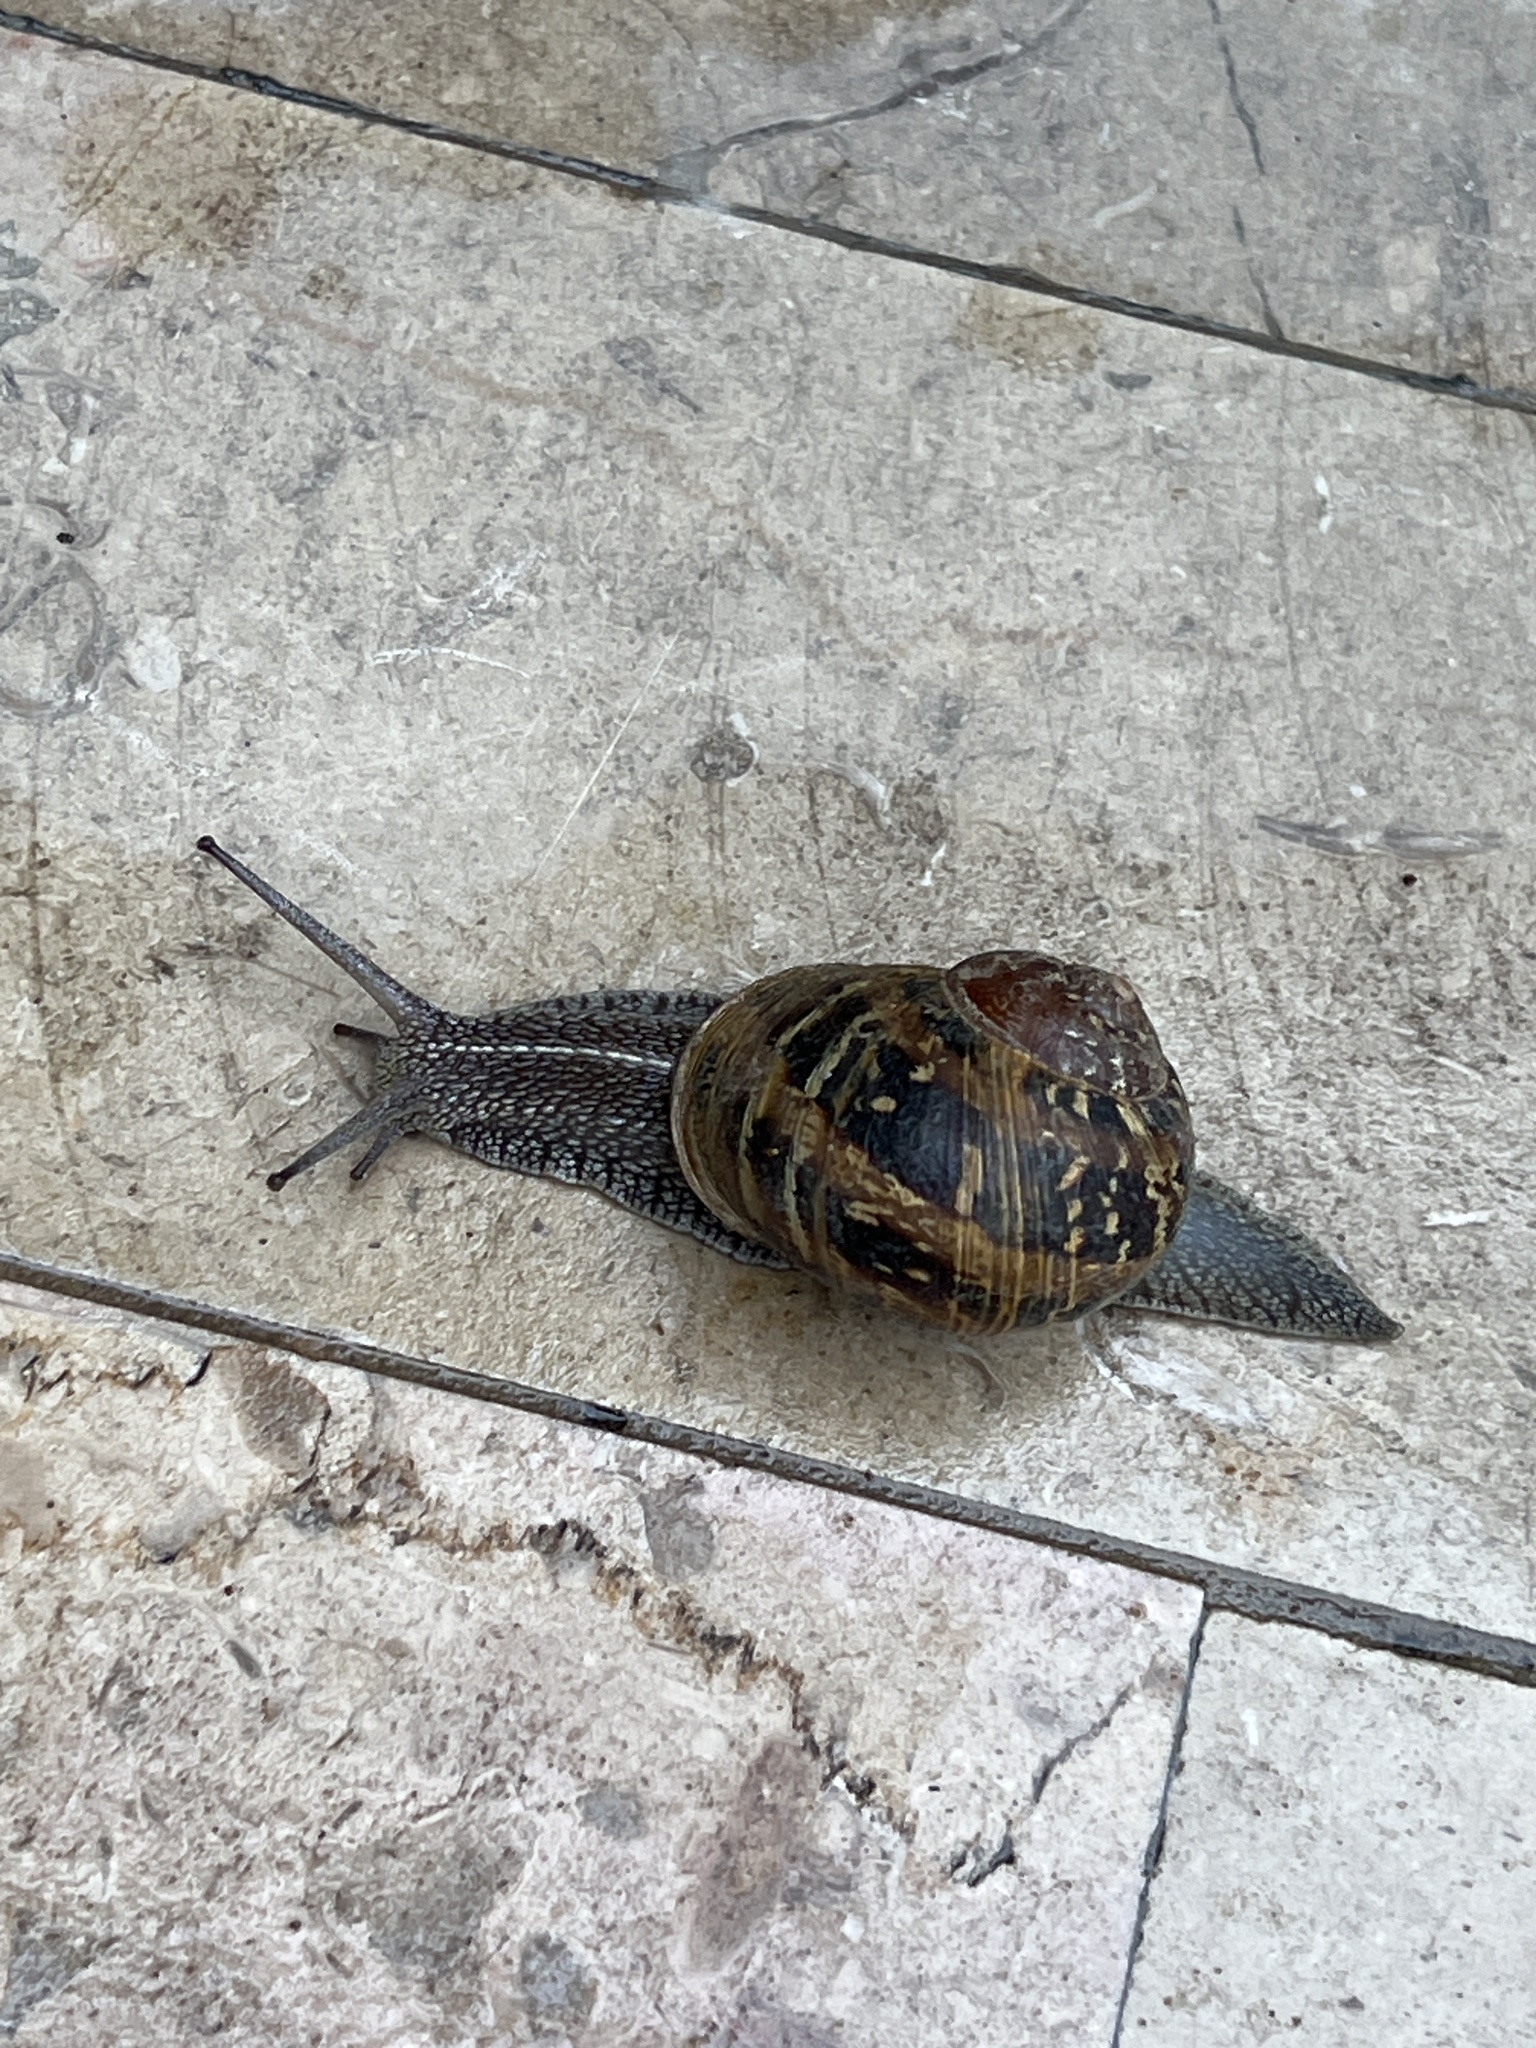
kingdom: Animalia
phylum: Mollusca
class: Gastropoda
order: Stylommatophora
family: Helicidae
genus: Cornu
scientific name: Cornu aspersum
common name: Brown garden snail
